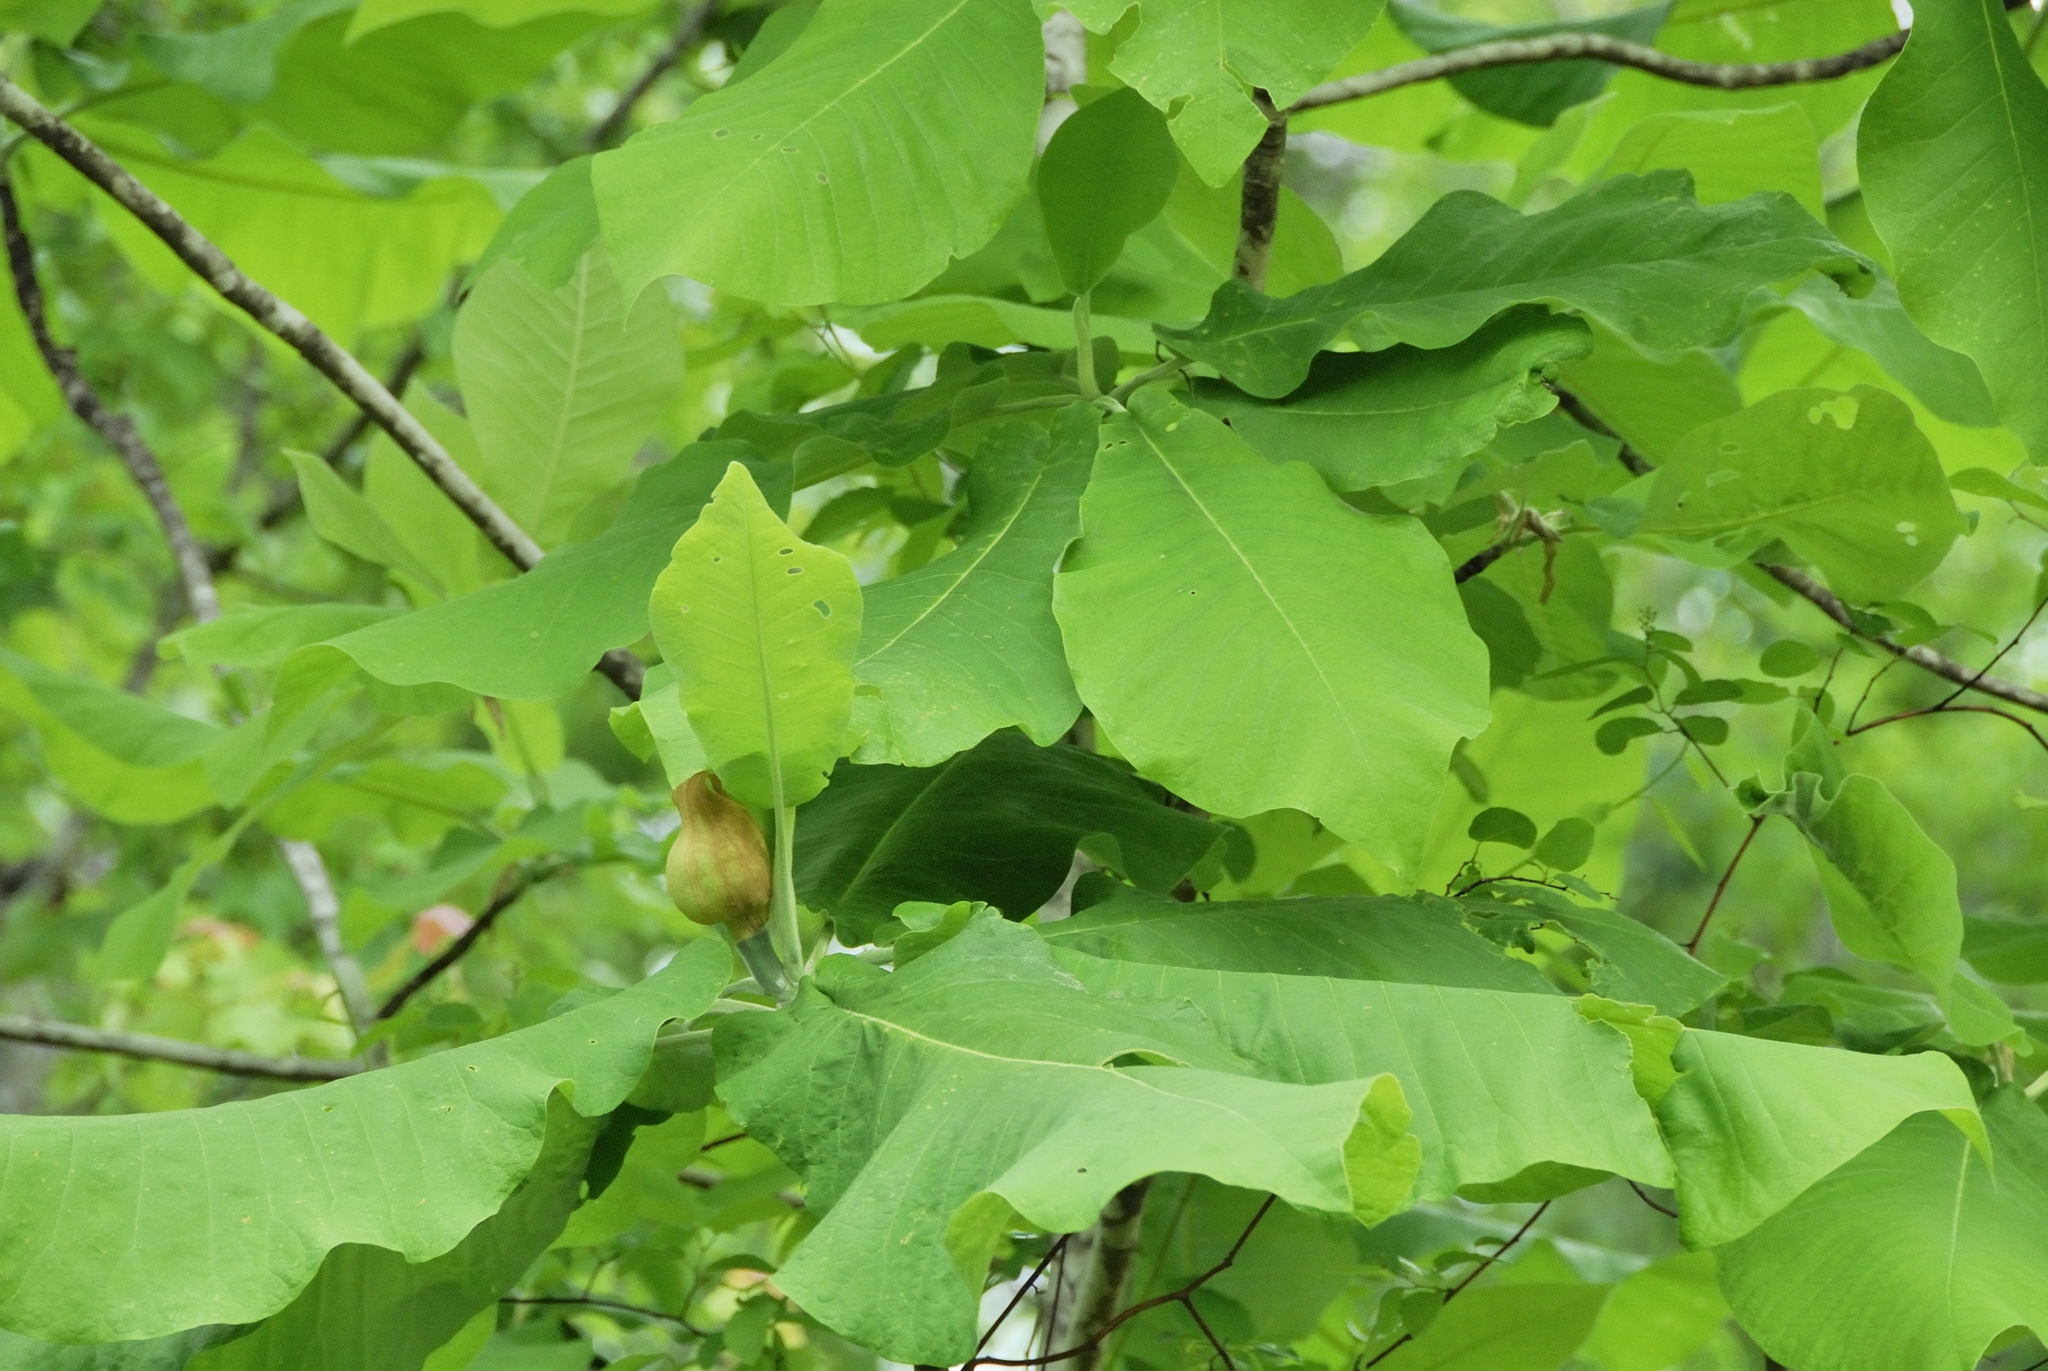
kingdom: Plantae
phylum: Tracheophyta
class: Magnoliopsida
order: Magnoliales
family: Magnoliaceae
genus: Magnolia
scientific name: Magnolia macrophylla
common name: Big-leaf magnolia
